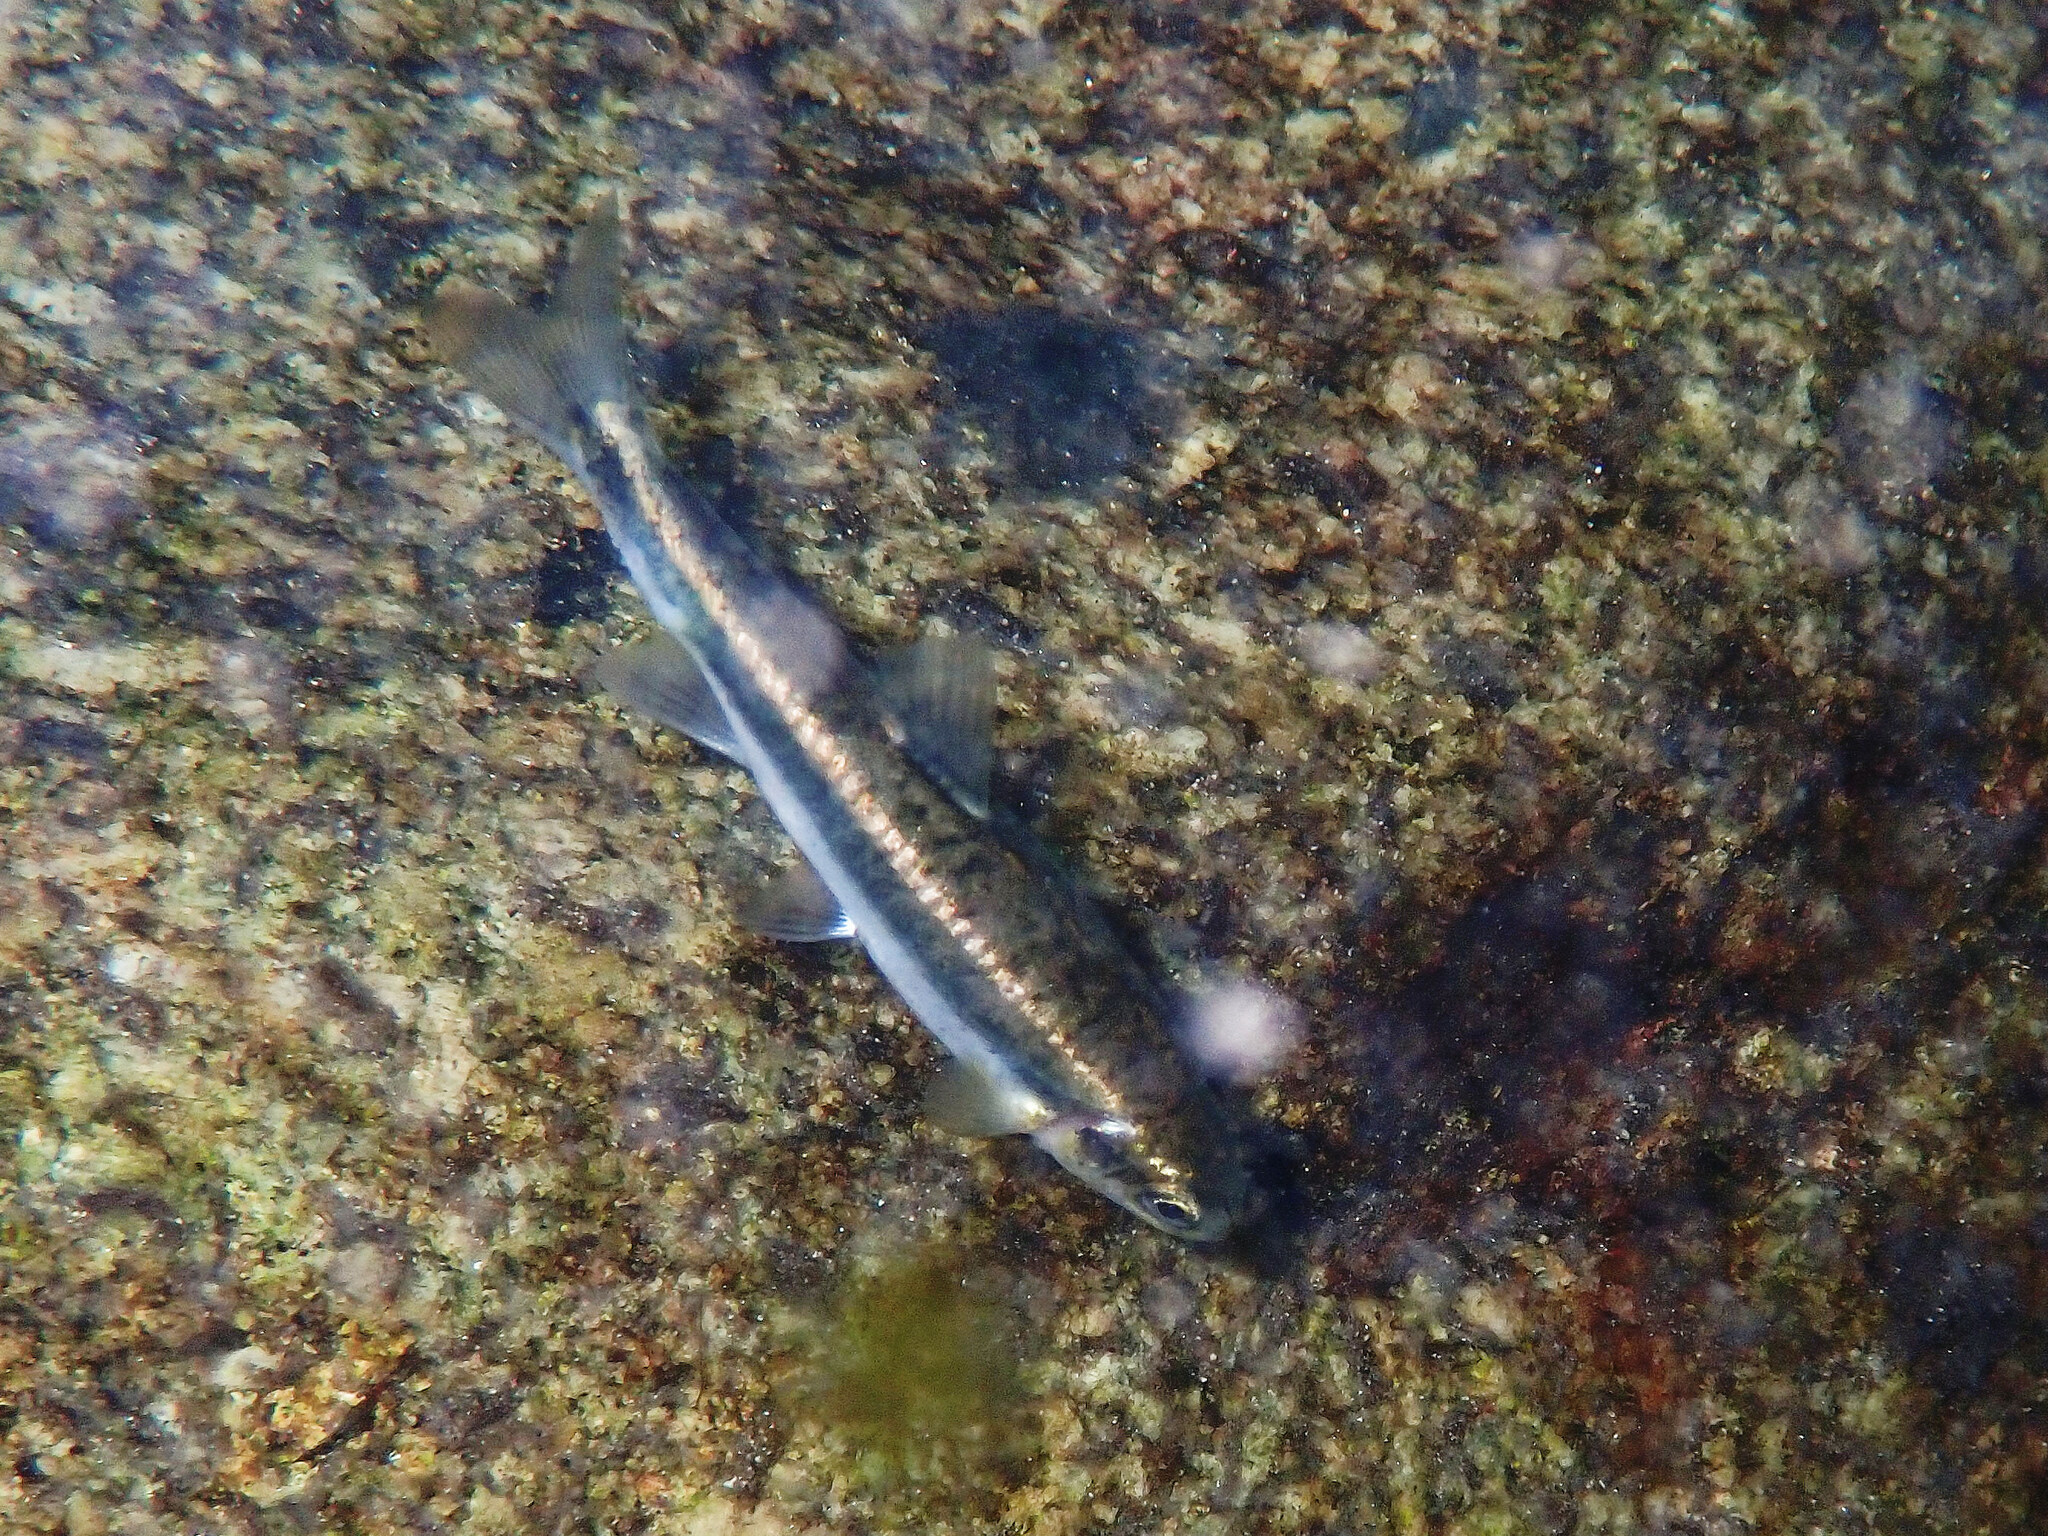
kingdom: Animalia
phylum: Chordata
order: Cypriniformes
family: Cyprinidae
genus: Phoxinus
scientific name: Phoxinus septimaniae
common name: Languedoc minnow
